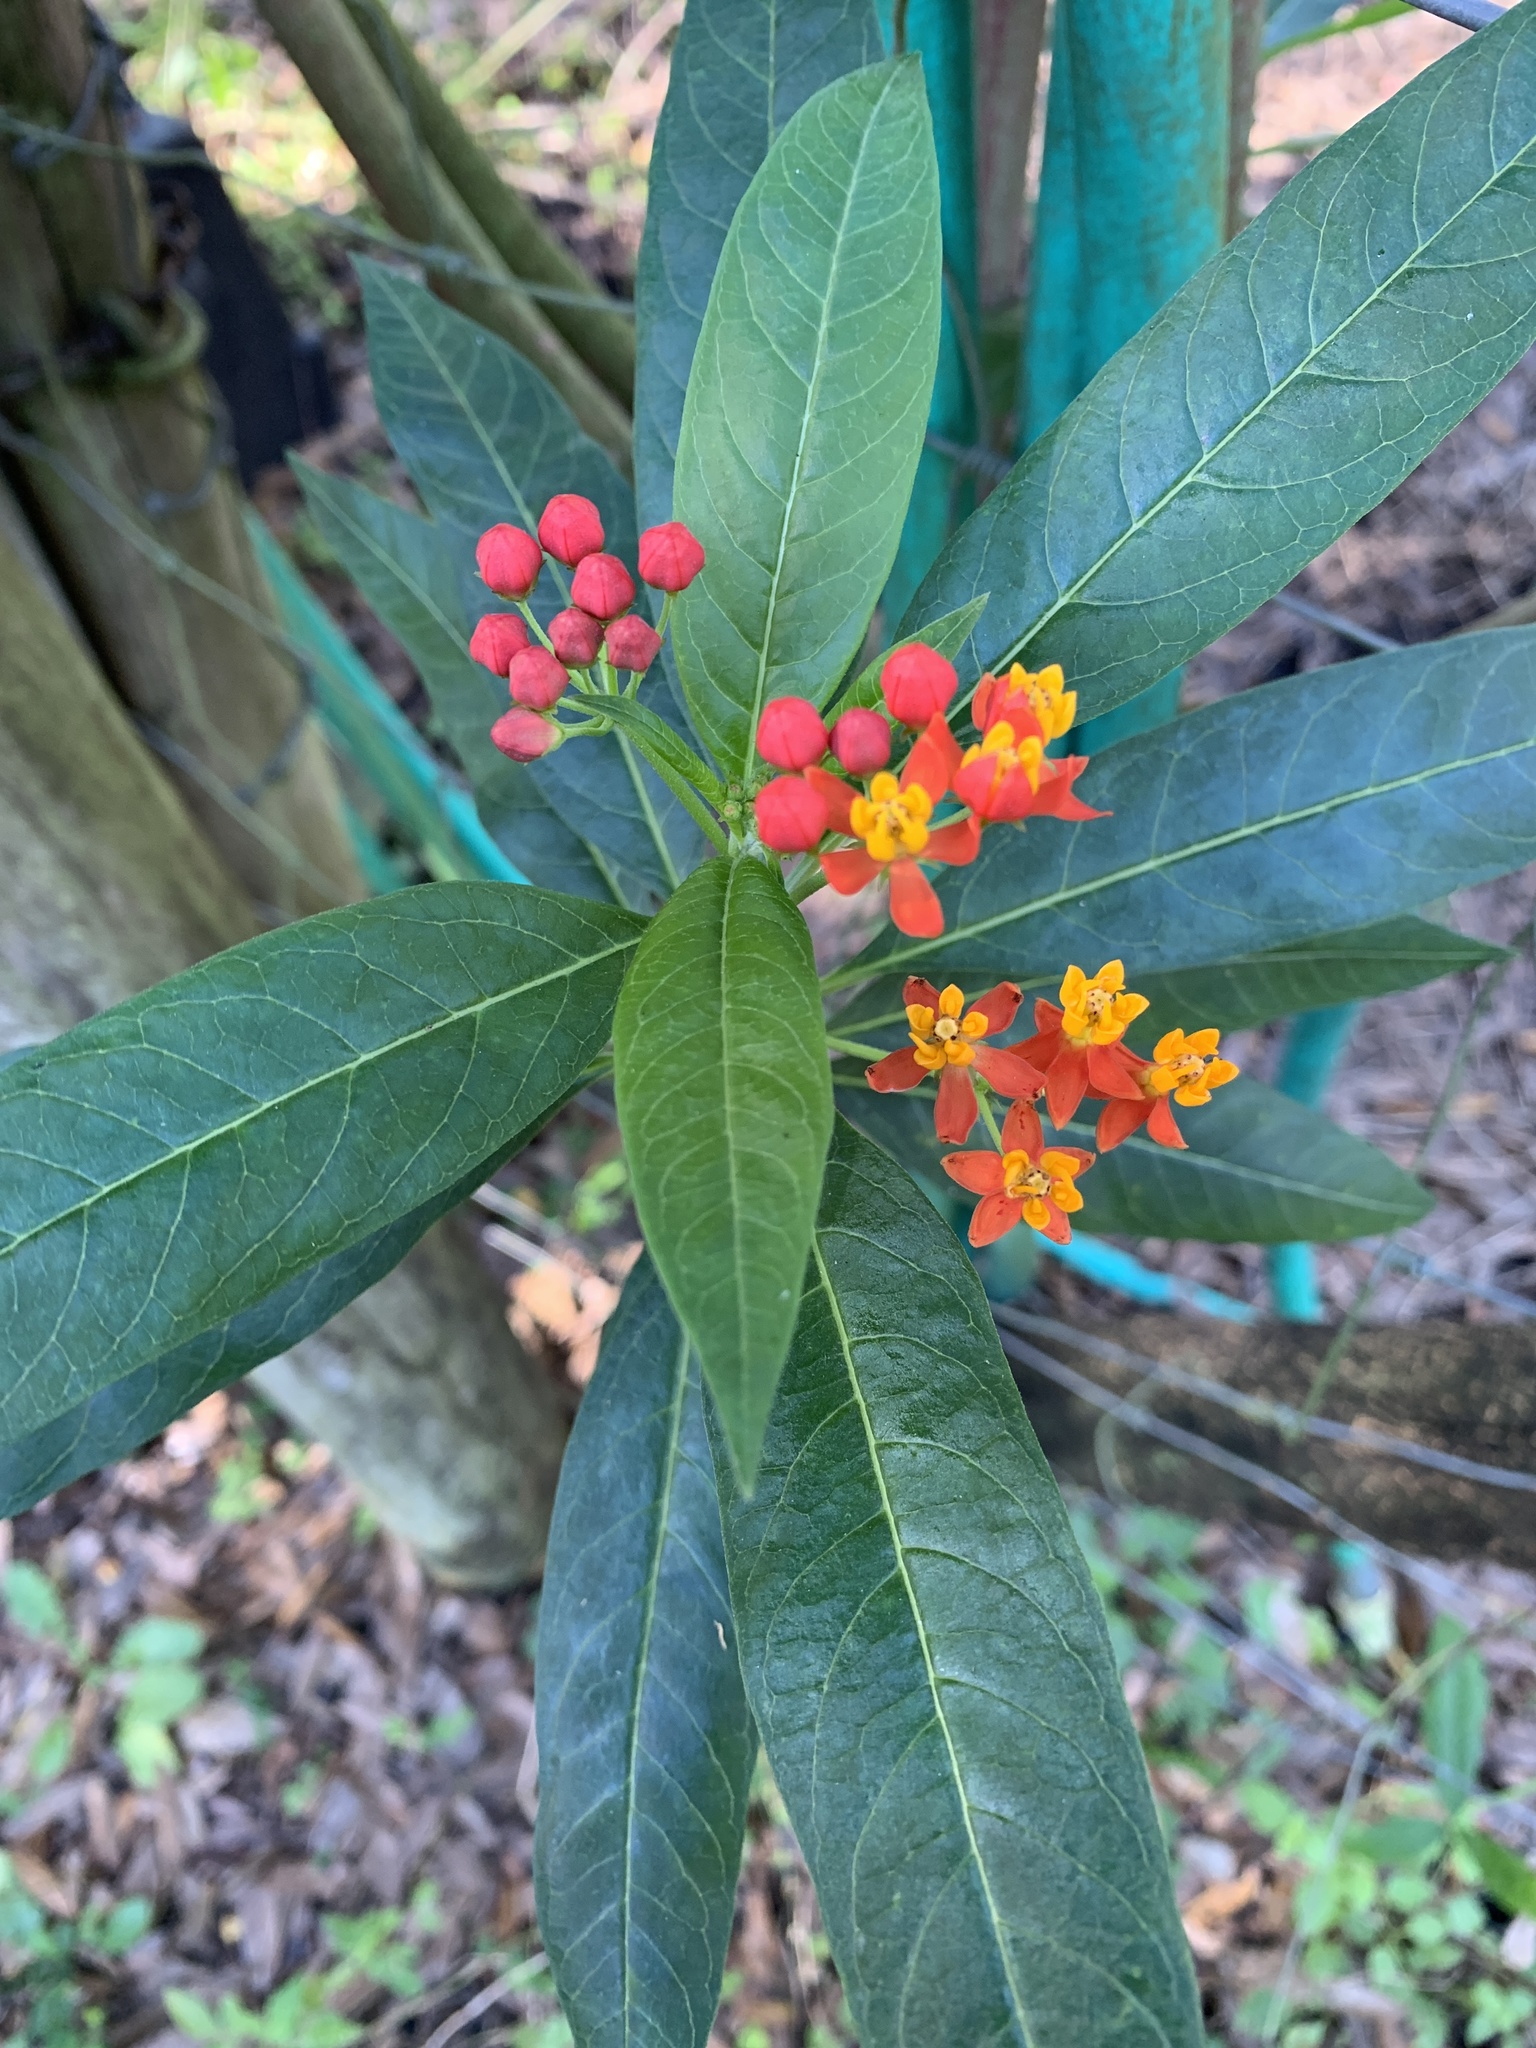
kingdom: Plantae
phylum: Tracheophyta
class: Magnoliopsida
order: Gentianales
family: Apocynaceae
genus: Asclepias
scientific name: Asclepias curassavica
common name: Bloodflower
